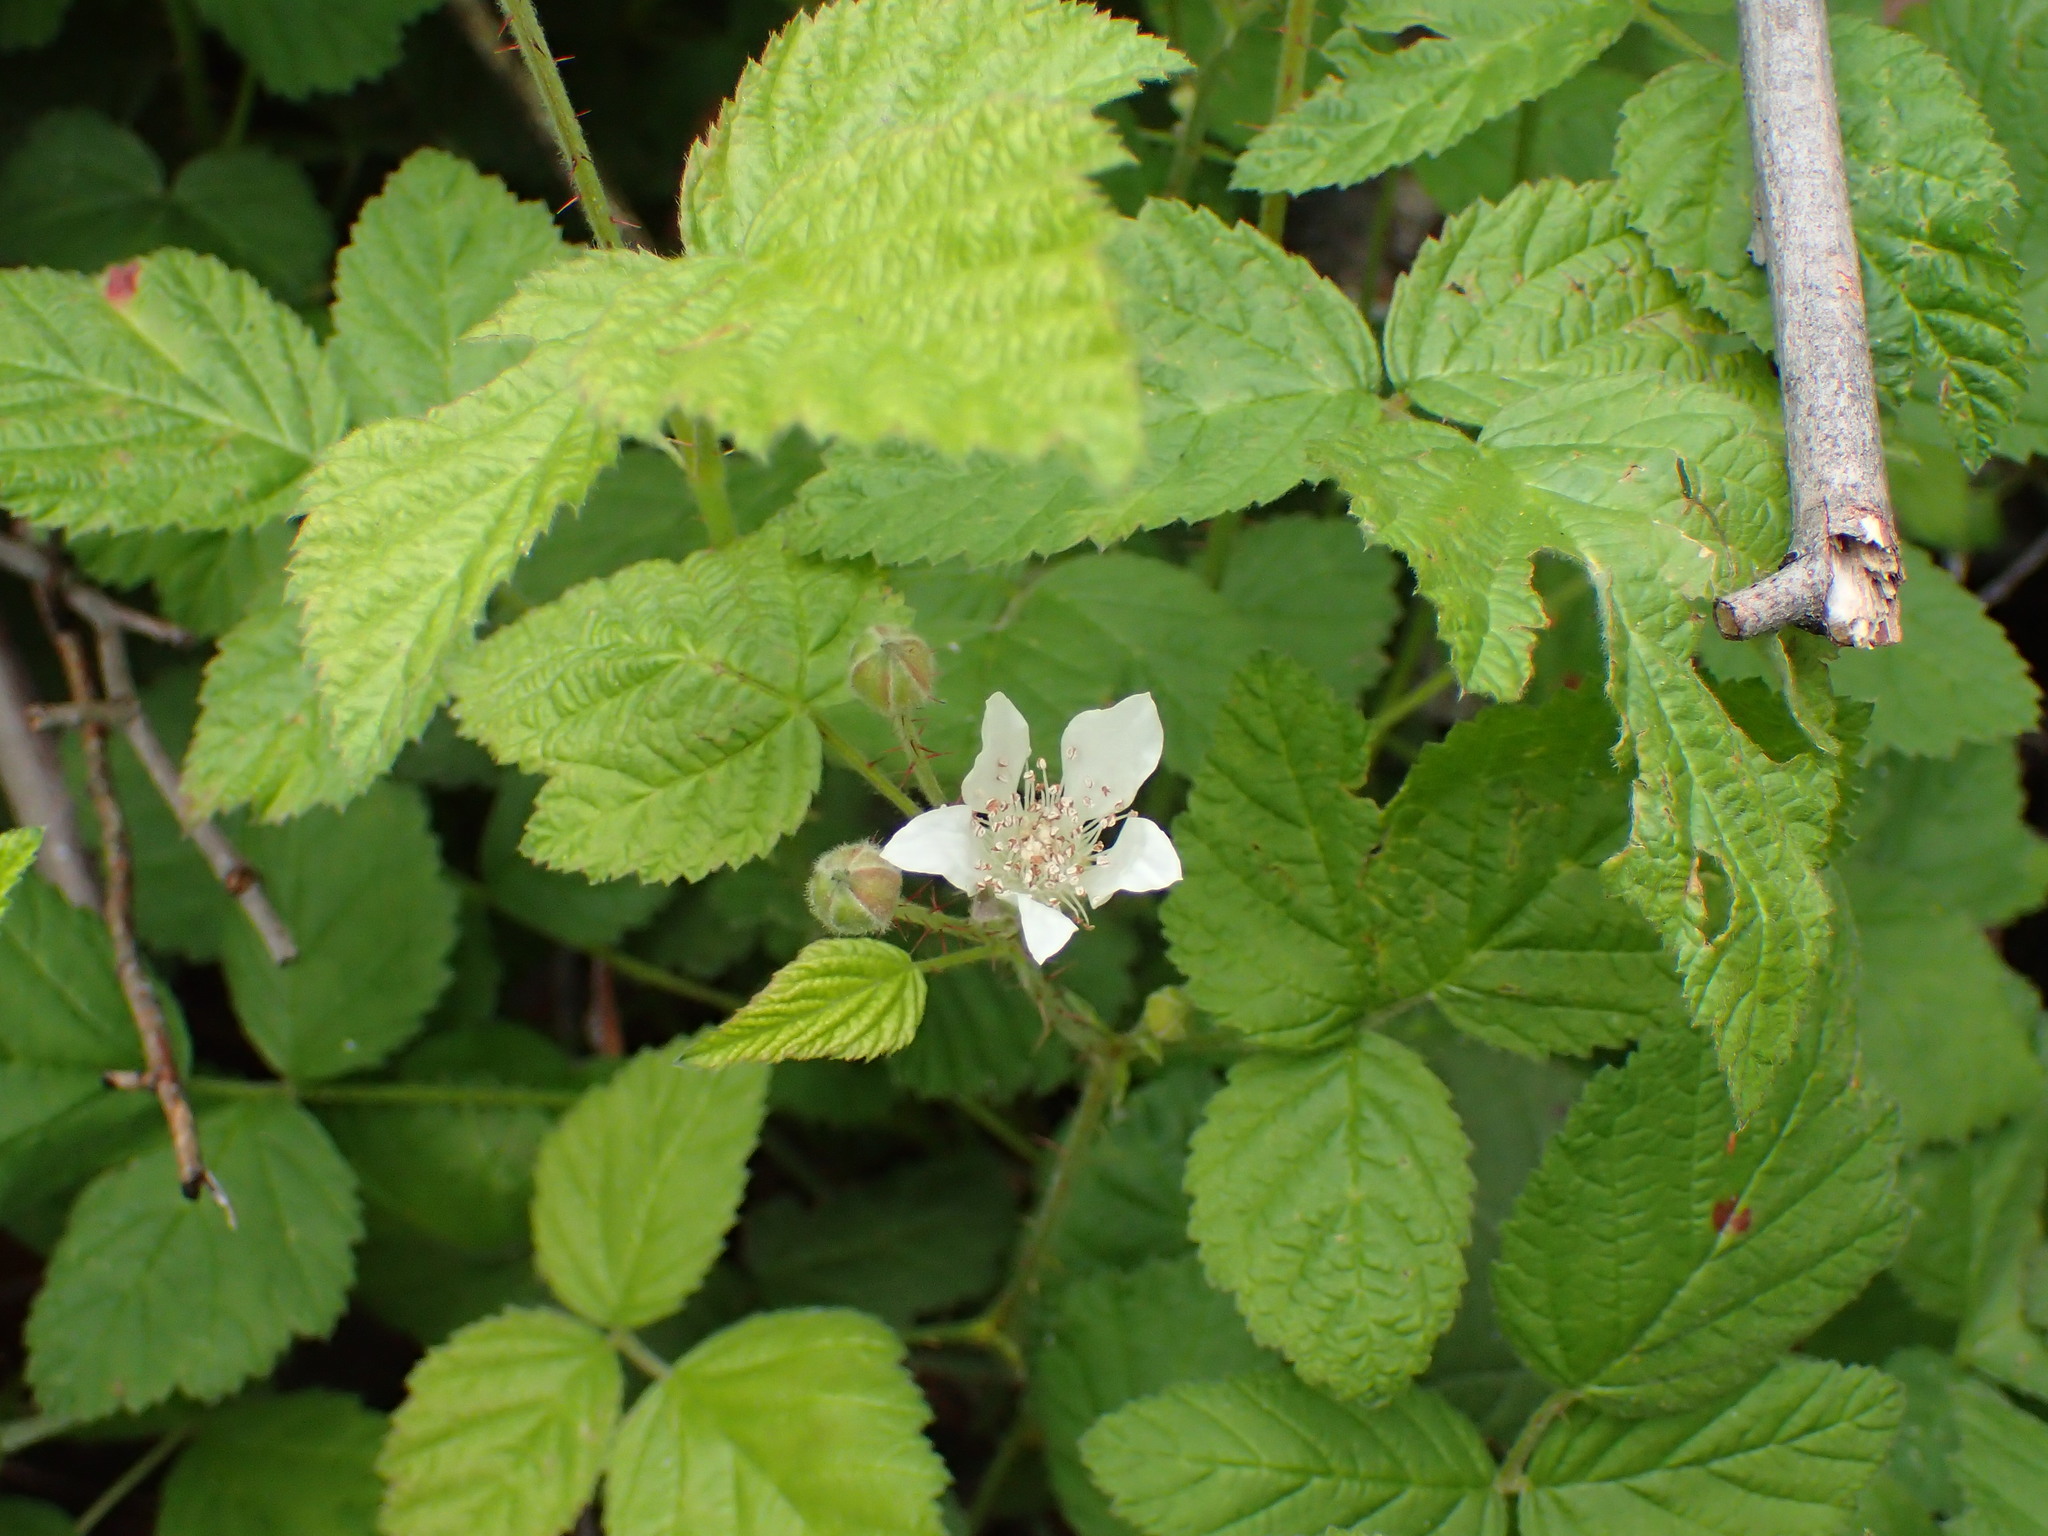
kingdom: Plantae
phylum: Tracheophyta
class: Magnoliopsida
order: Rosales
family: Rosaceae
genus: Rubus
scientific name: Rubus ursinus
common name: Pacific blackberry
